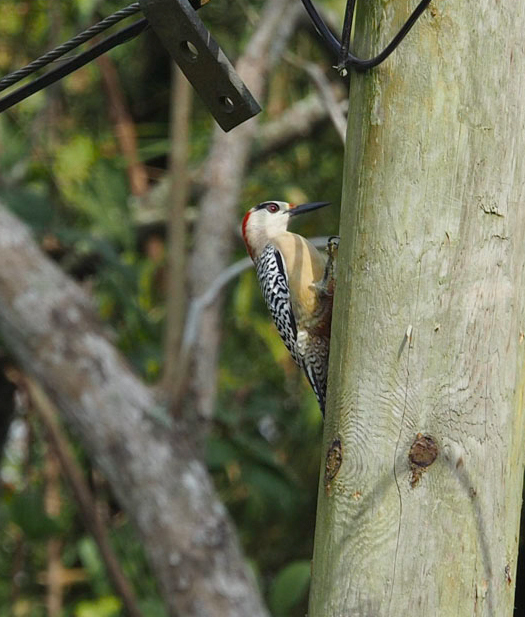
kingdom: Animalia
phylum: Chordata
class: Aves
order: Piciformes
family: Picidae
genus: Melanerpes
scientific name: Melanerpes superciliaris
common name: West indian woodpecker
